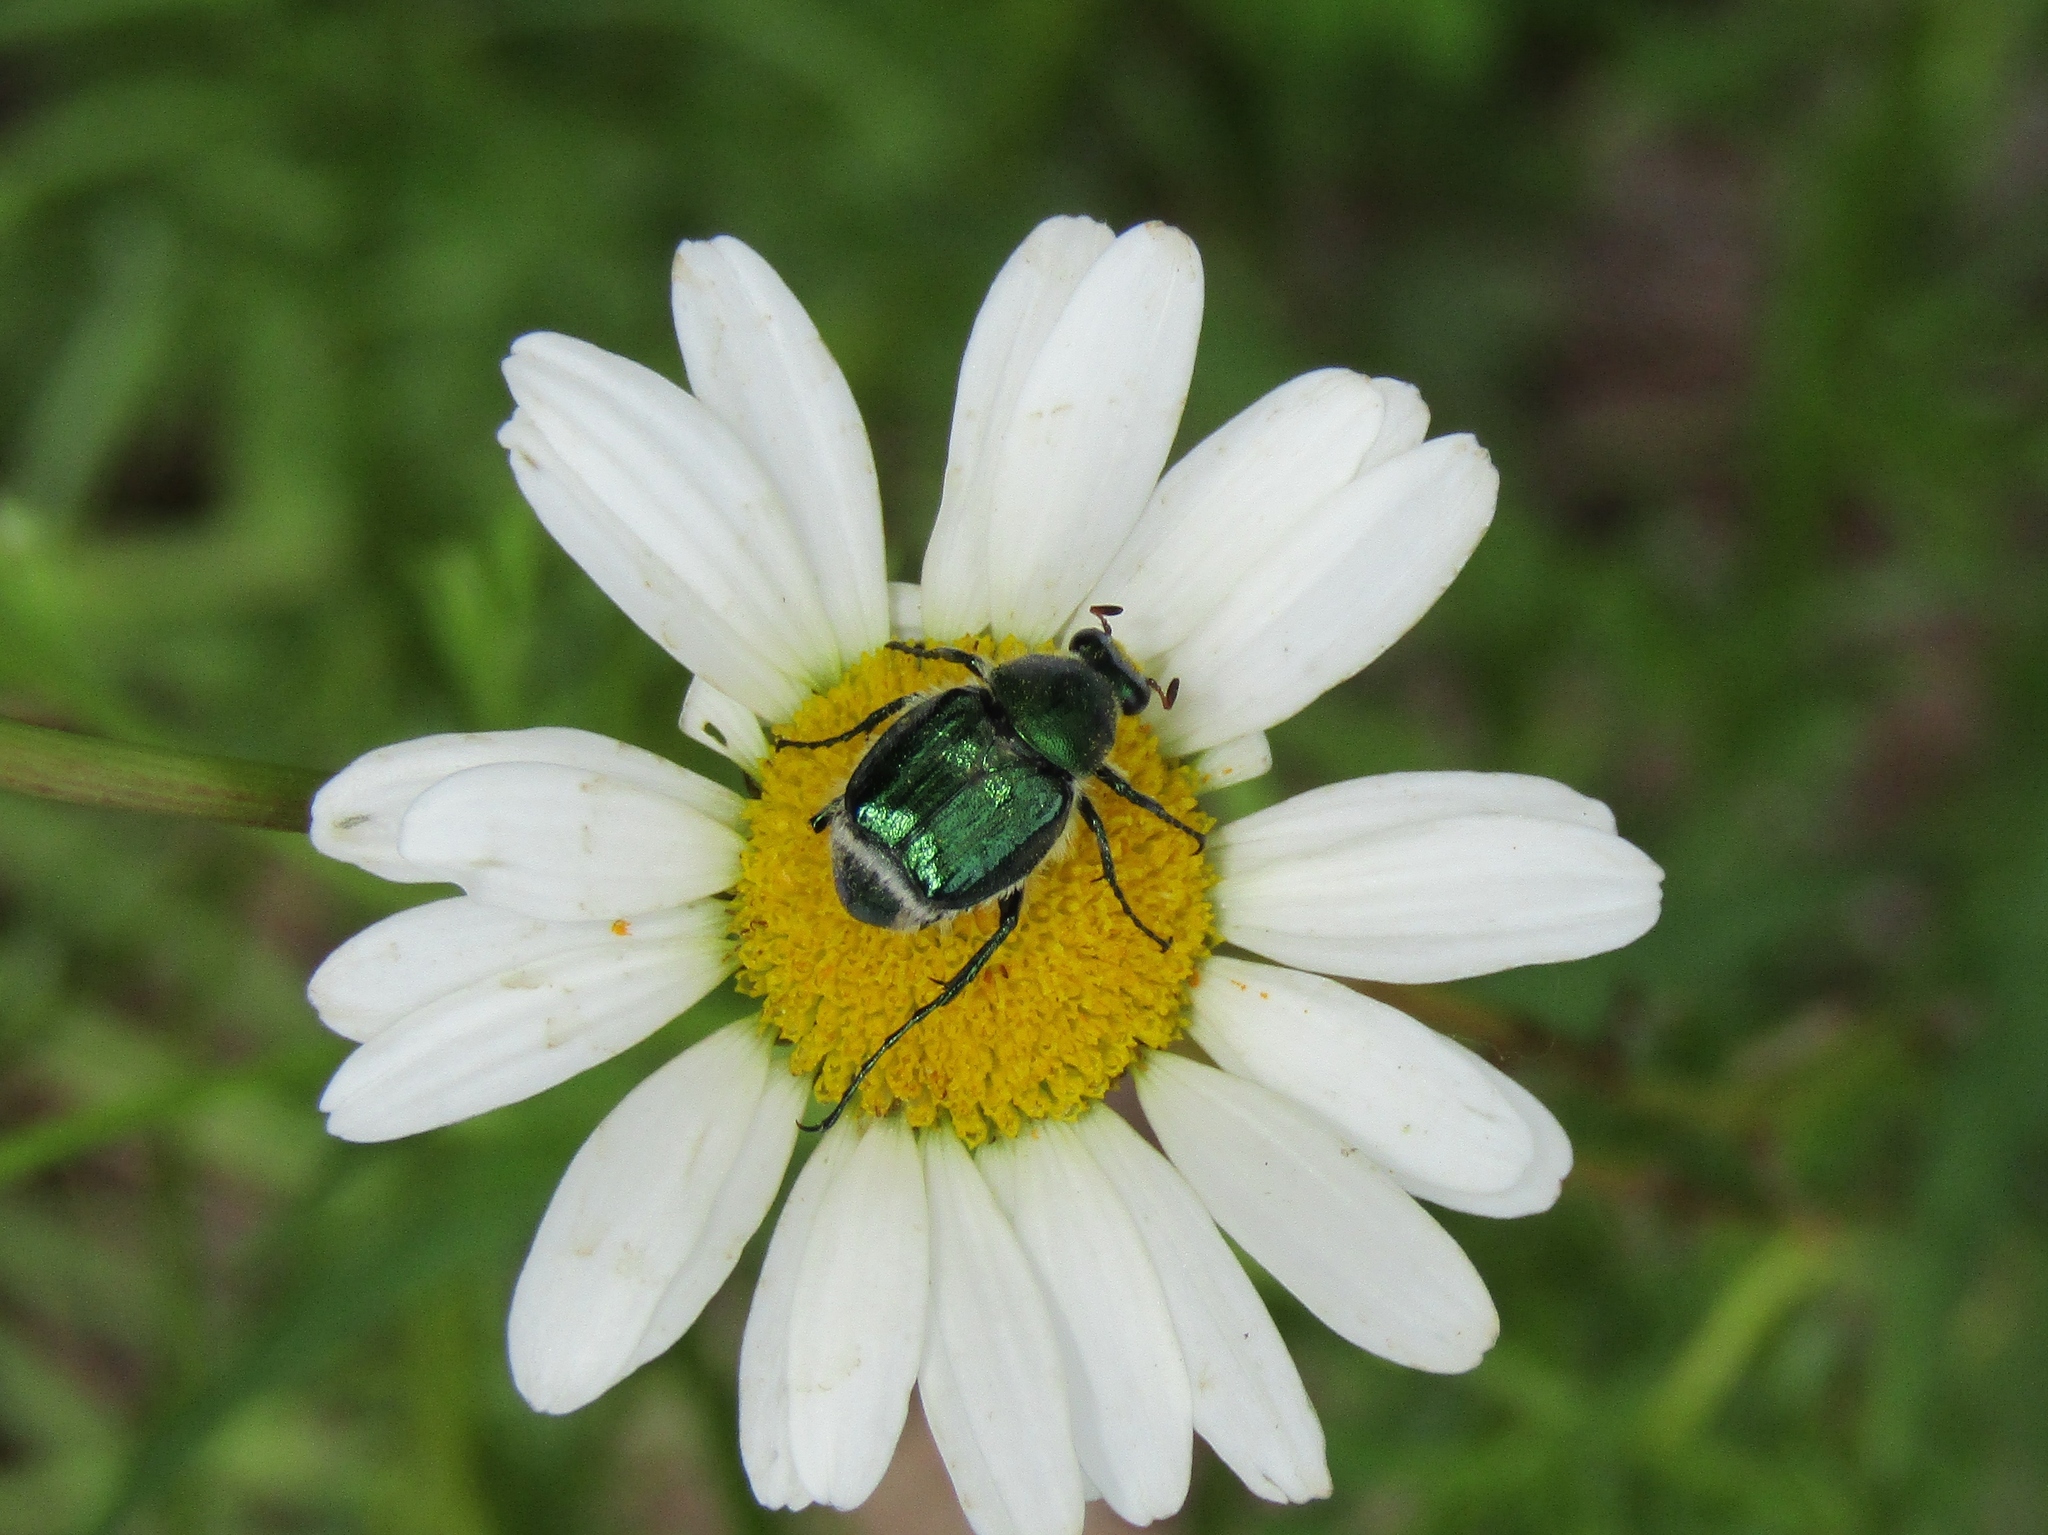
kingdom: Animalia
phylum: Arthropoda
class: Insecta
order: Coleoptera
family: Scarabaeidae
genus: Trichiotinus
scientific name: Trichiotinus lunulatus
